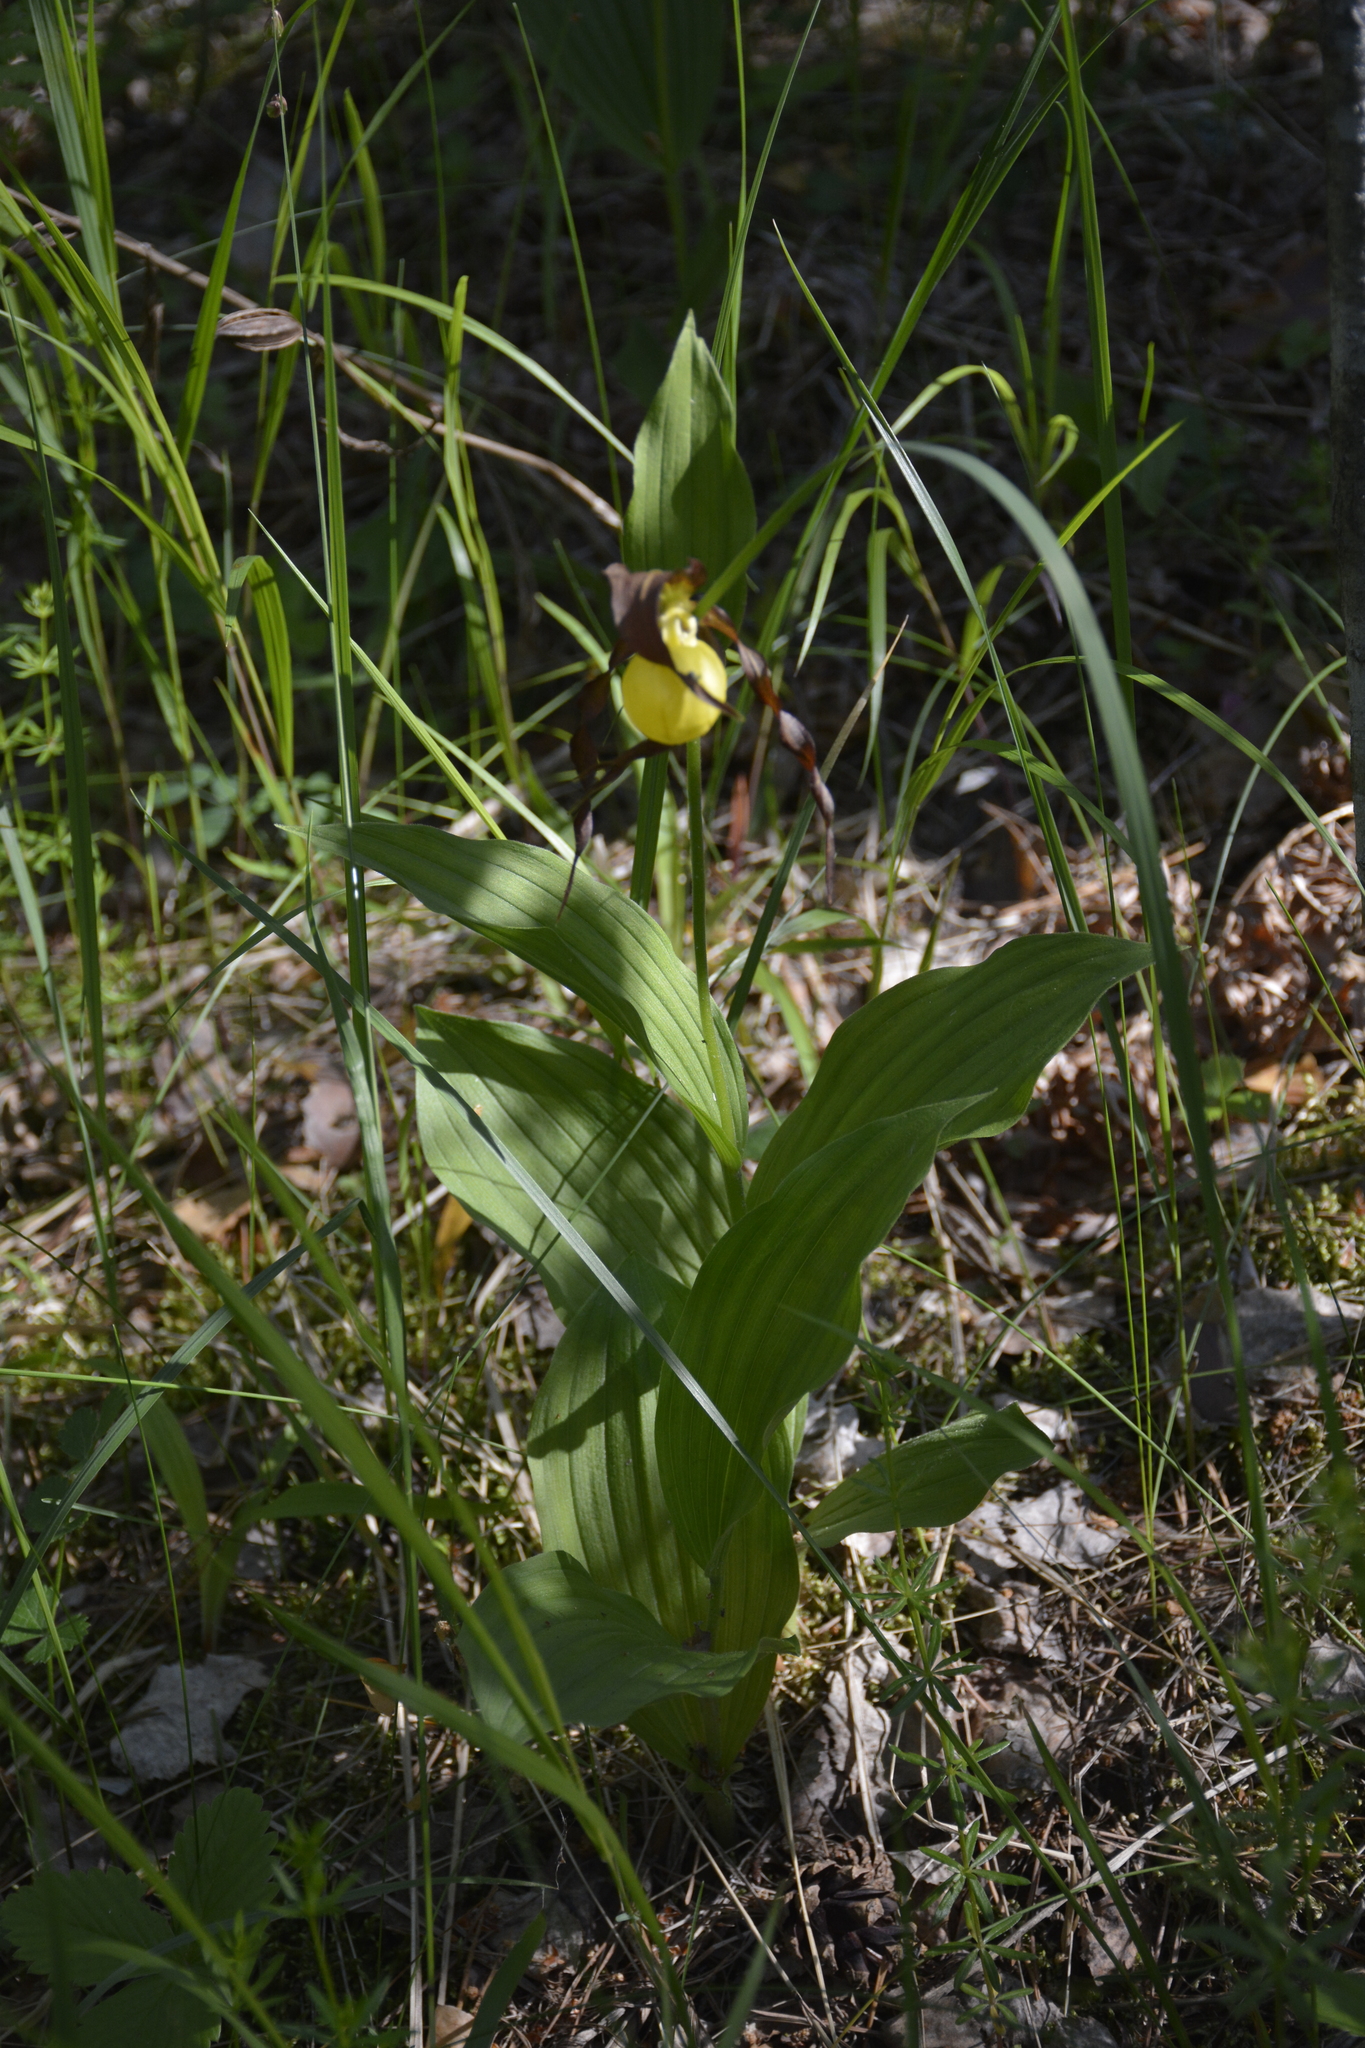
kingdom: Plantae
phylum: Tracheophyta
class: Liliopsida
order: Asparagales
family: Orchidaceae
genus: Cypripedium
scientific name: Cypripedium calceolus
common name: Lady's-slipper
